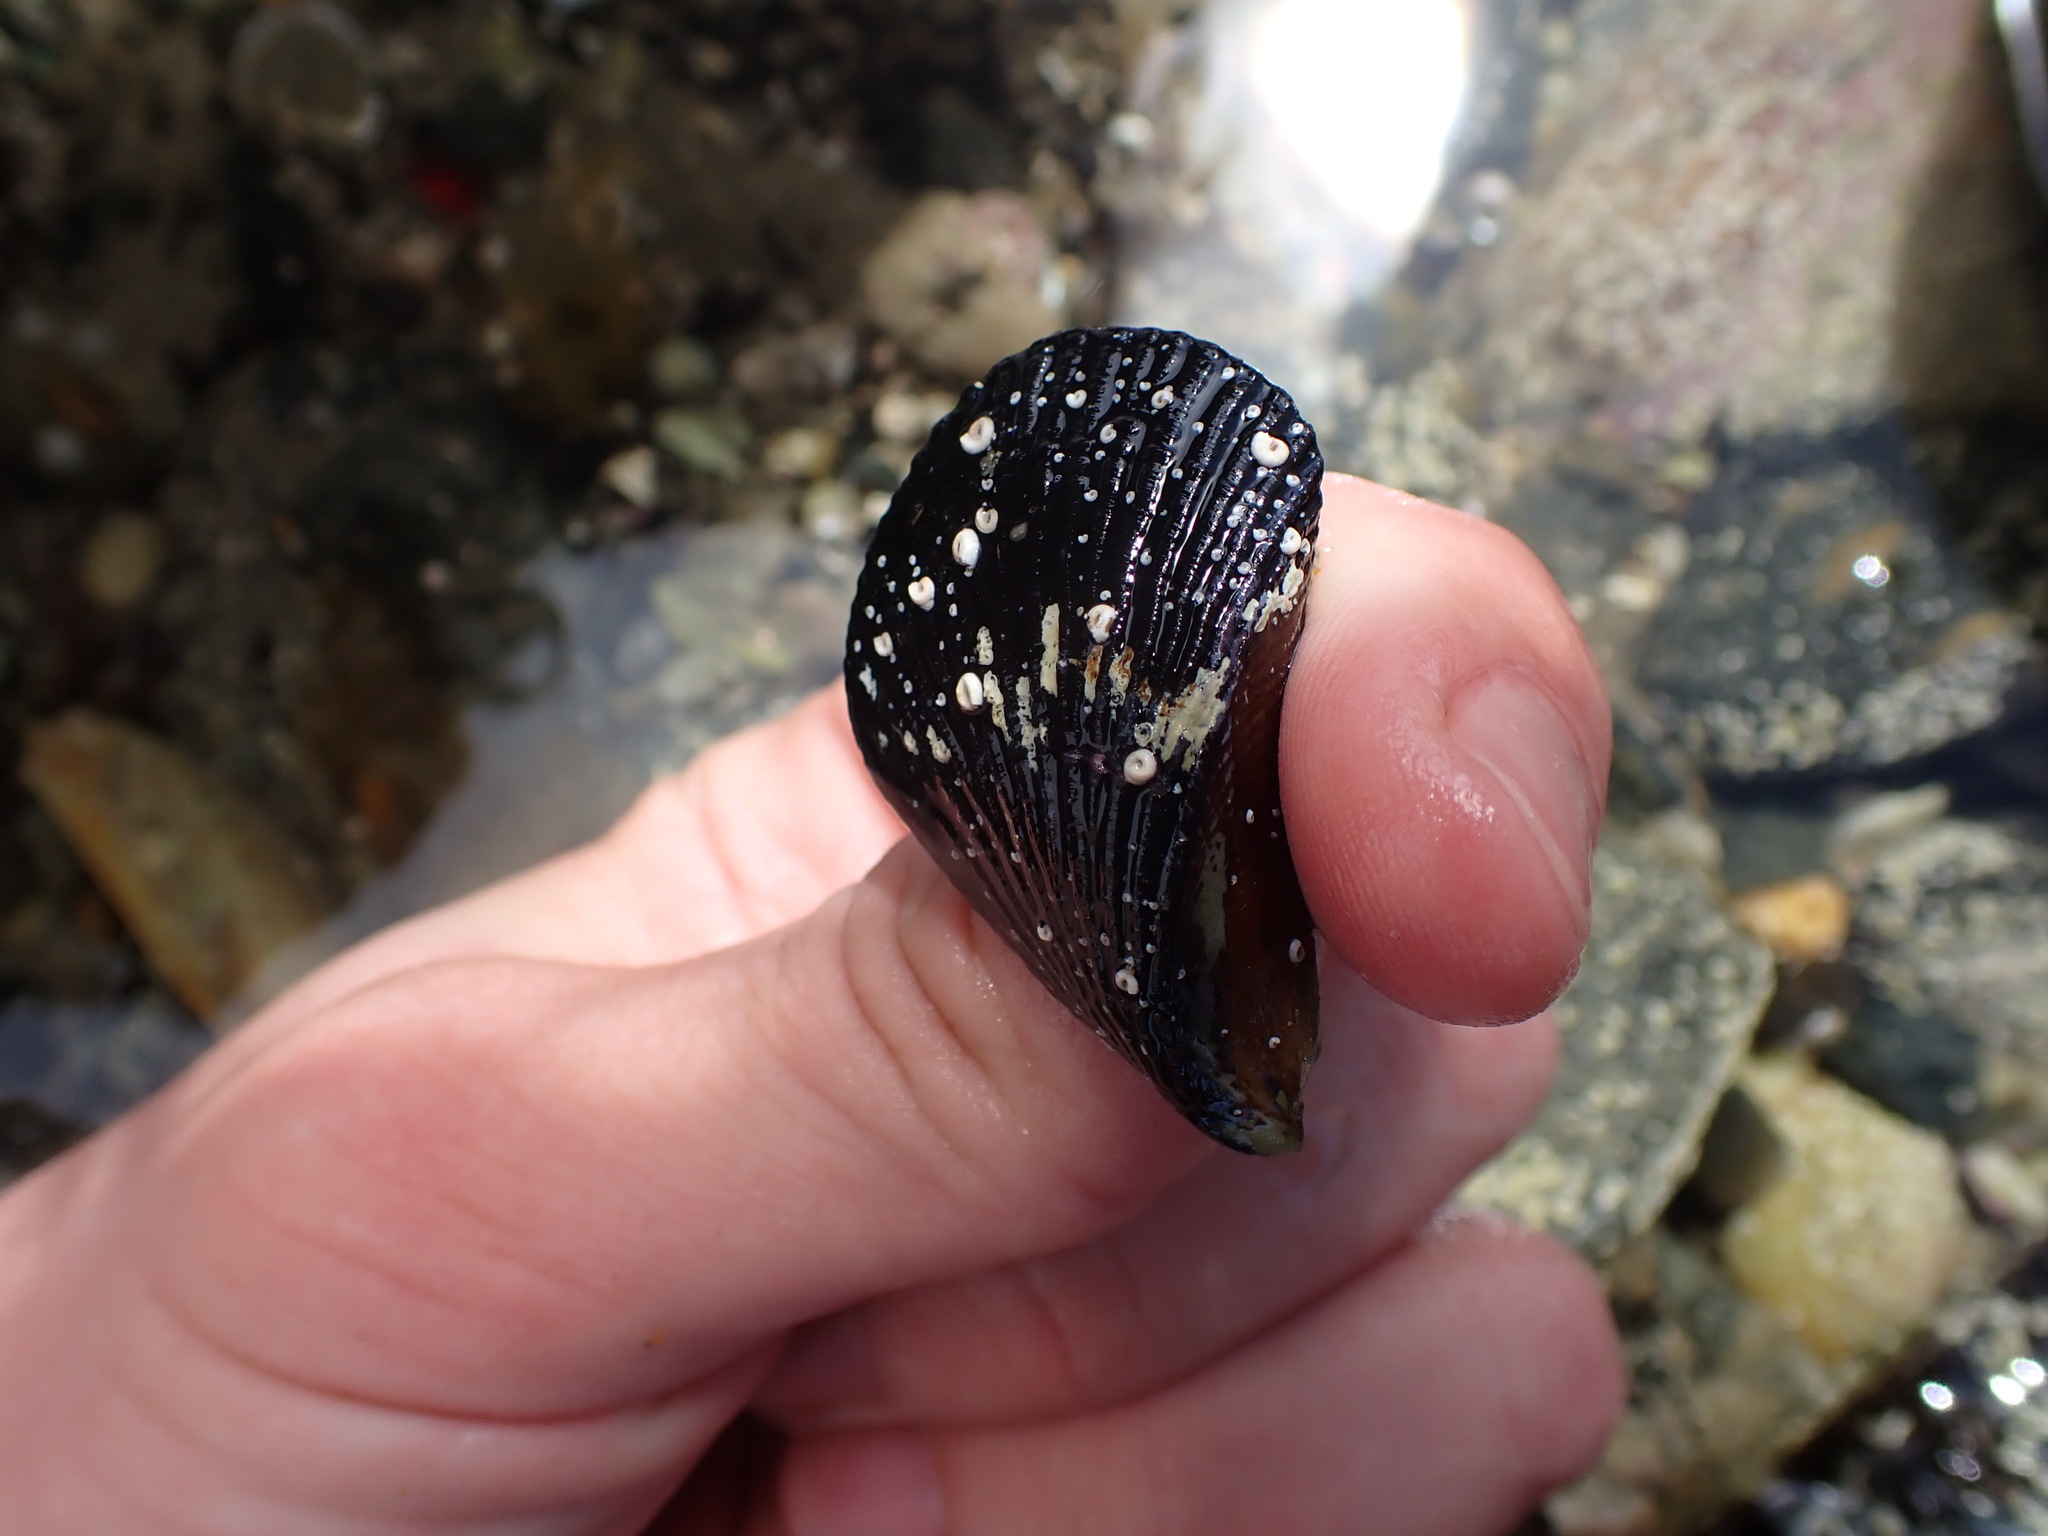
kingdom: Animalia
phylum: Mollusca
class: Bivalvia
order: Mytilida
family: Mytilidae
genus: Aulacomya
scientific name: Aulacomya maoriana
